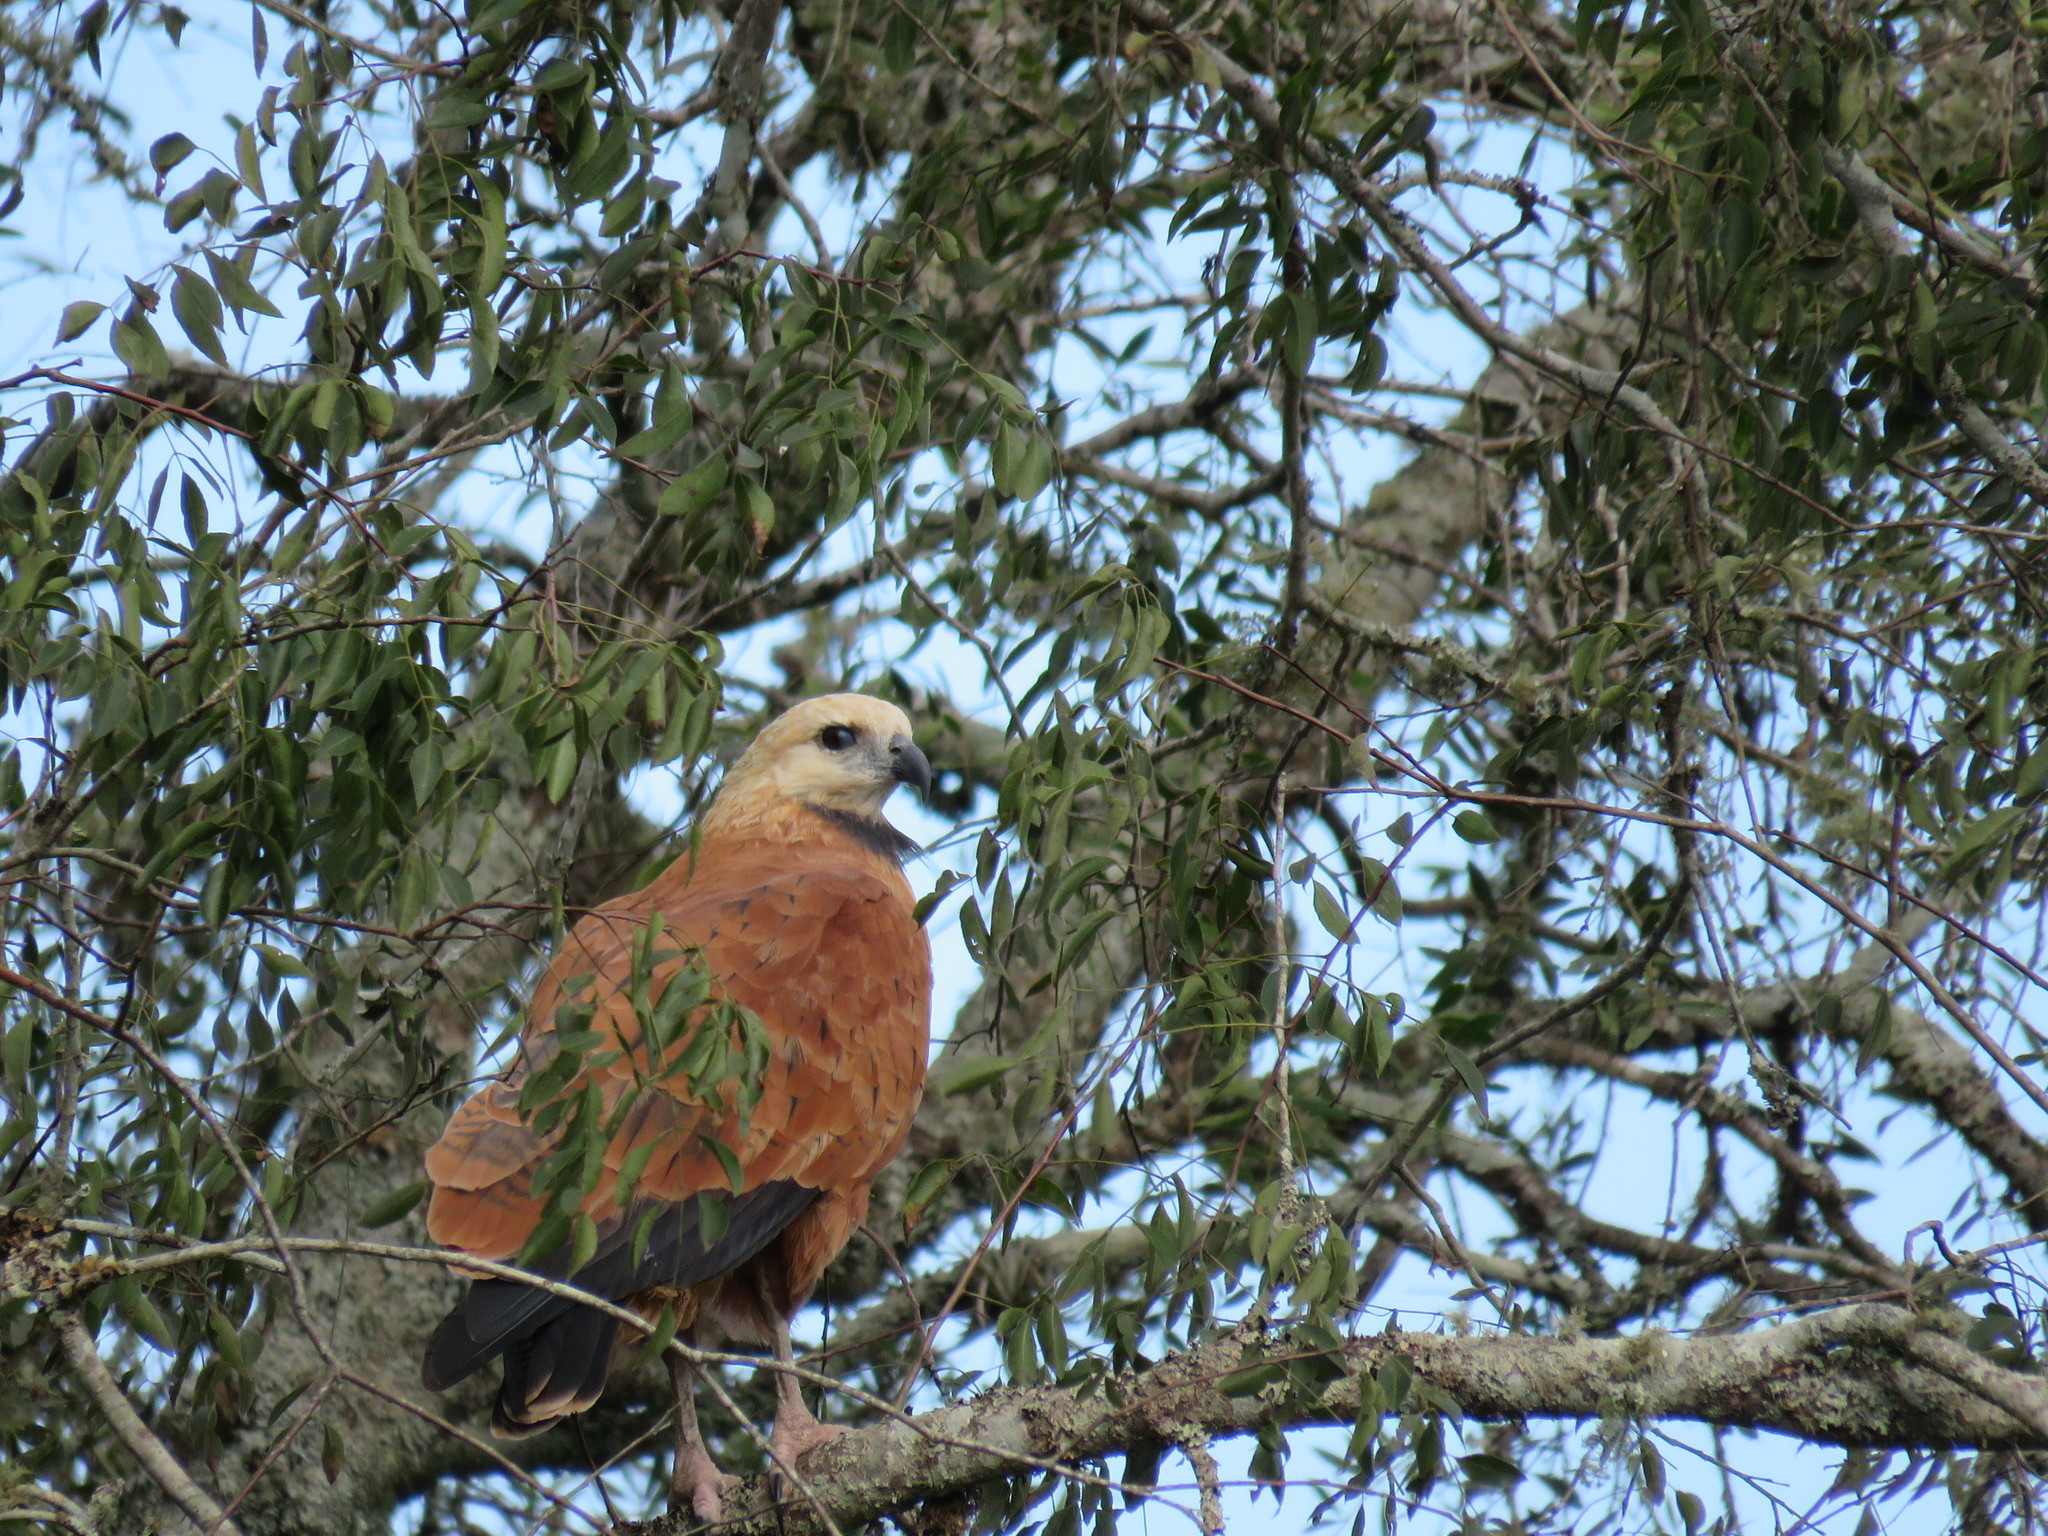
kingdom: Animalia
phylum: Chordata
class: Aves
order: Accipitriformes
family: Accipitridae
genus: Busarellus
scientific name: Busarellus nigricollis
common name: Black-collared hawk
